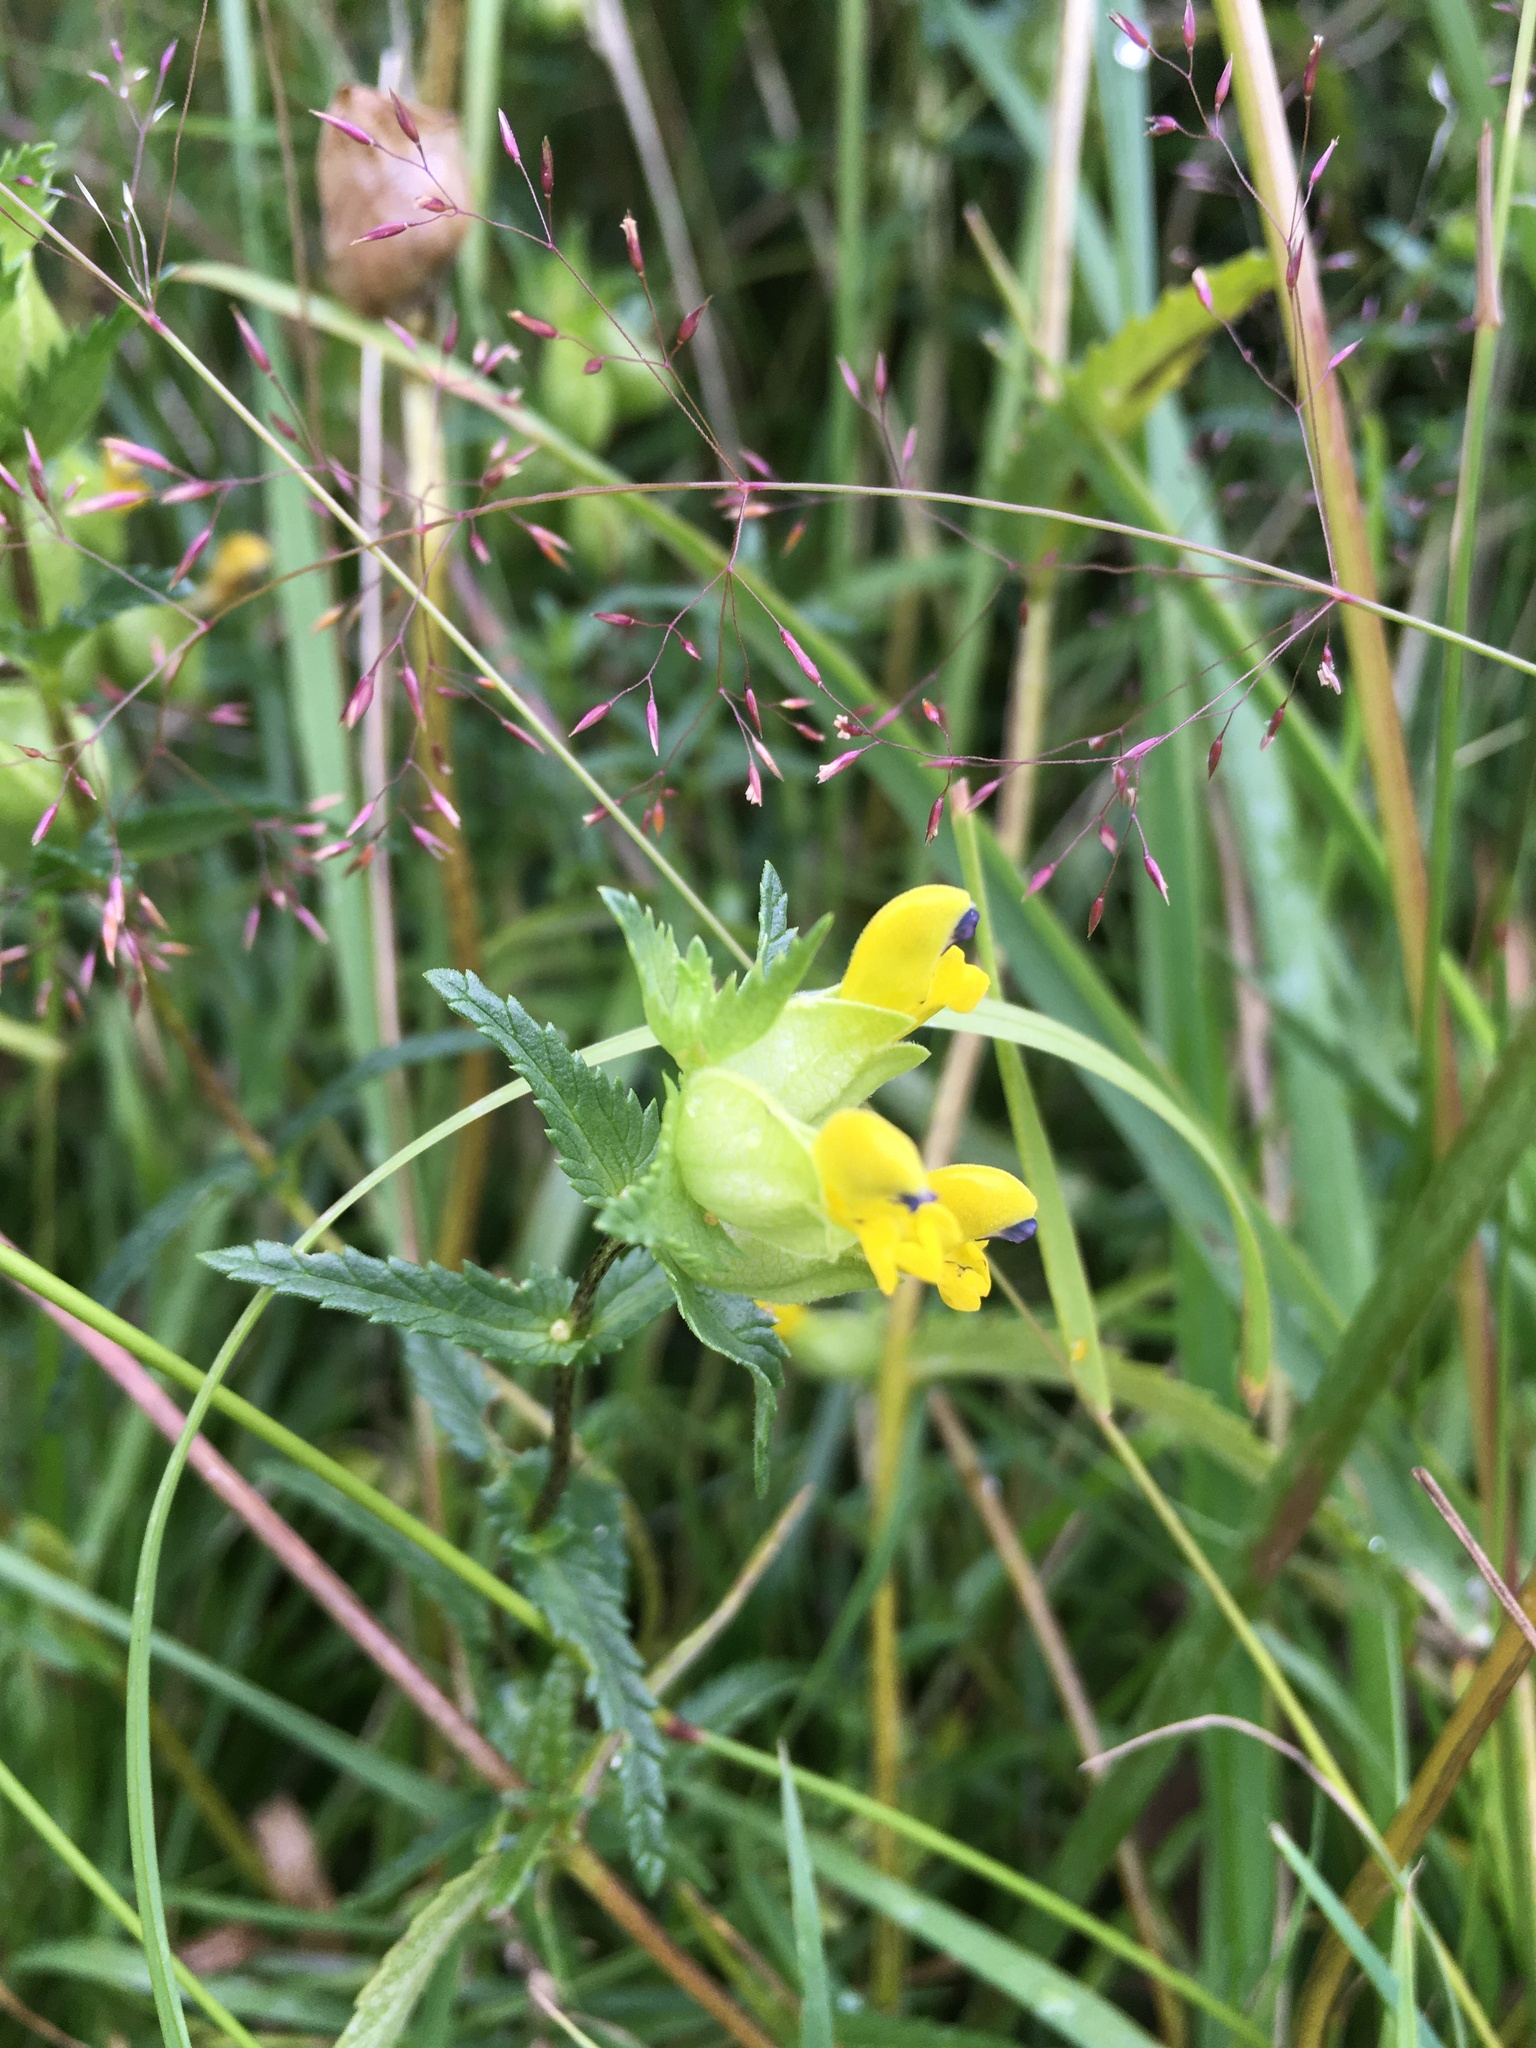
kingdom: Plantae
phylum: Tracheophyta
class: Magnoliopsida
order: Lamiales
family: Orobanchaceae
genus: Rhinanthus
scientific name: Rhinanthus minor
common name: Yellow-rattle
